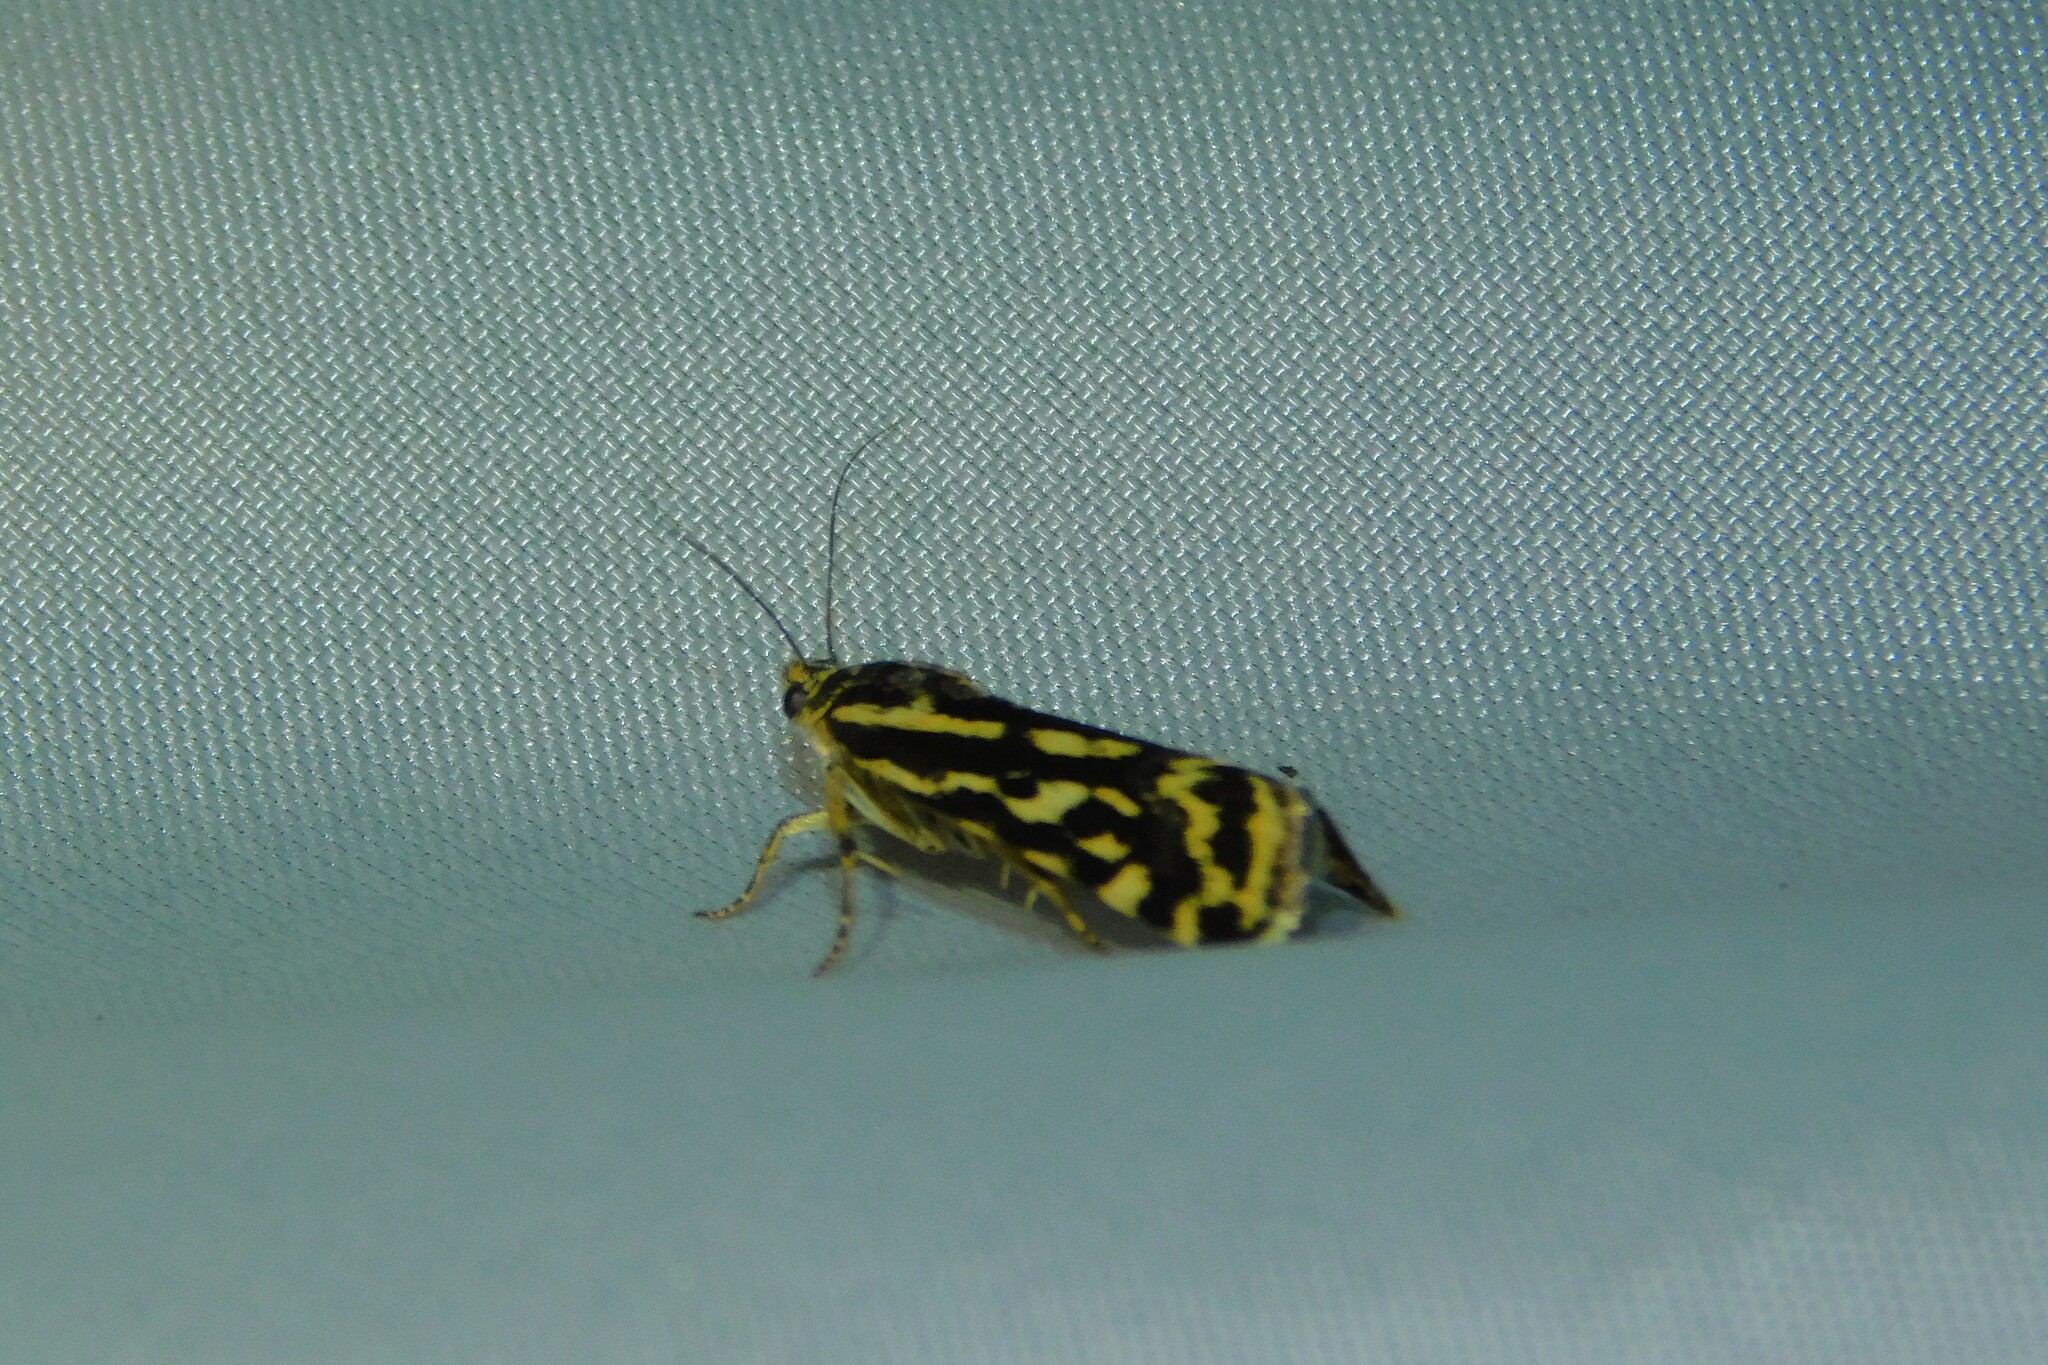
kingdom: Animalia
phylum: Arthropoda
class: Insecta
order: Lepidoptera
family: Noctuidae
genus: Acontia
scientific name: Acontia trabealis
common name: Spotted sulphur
